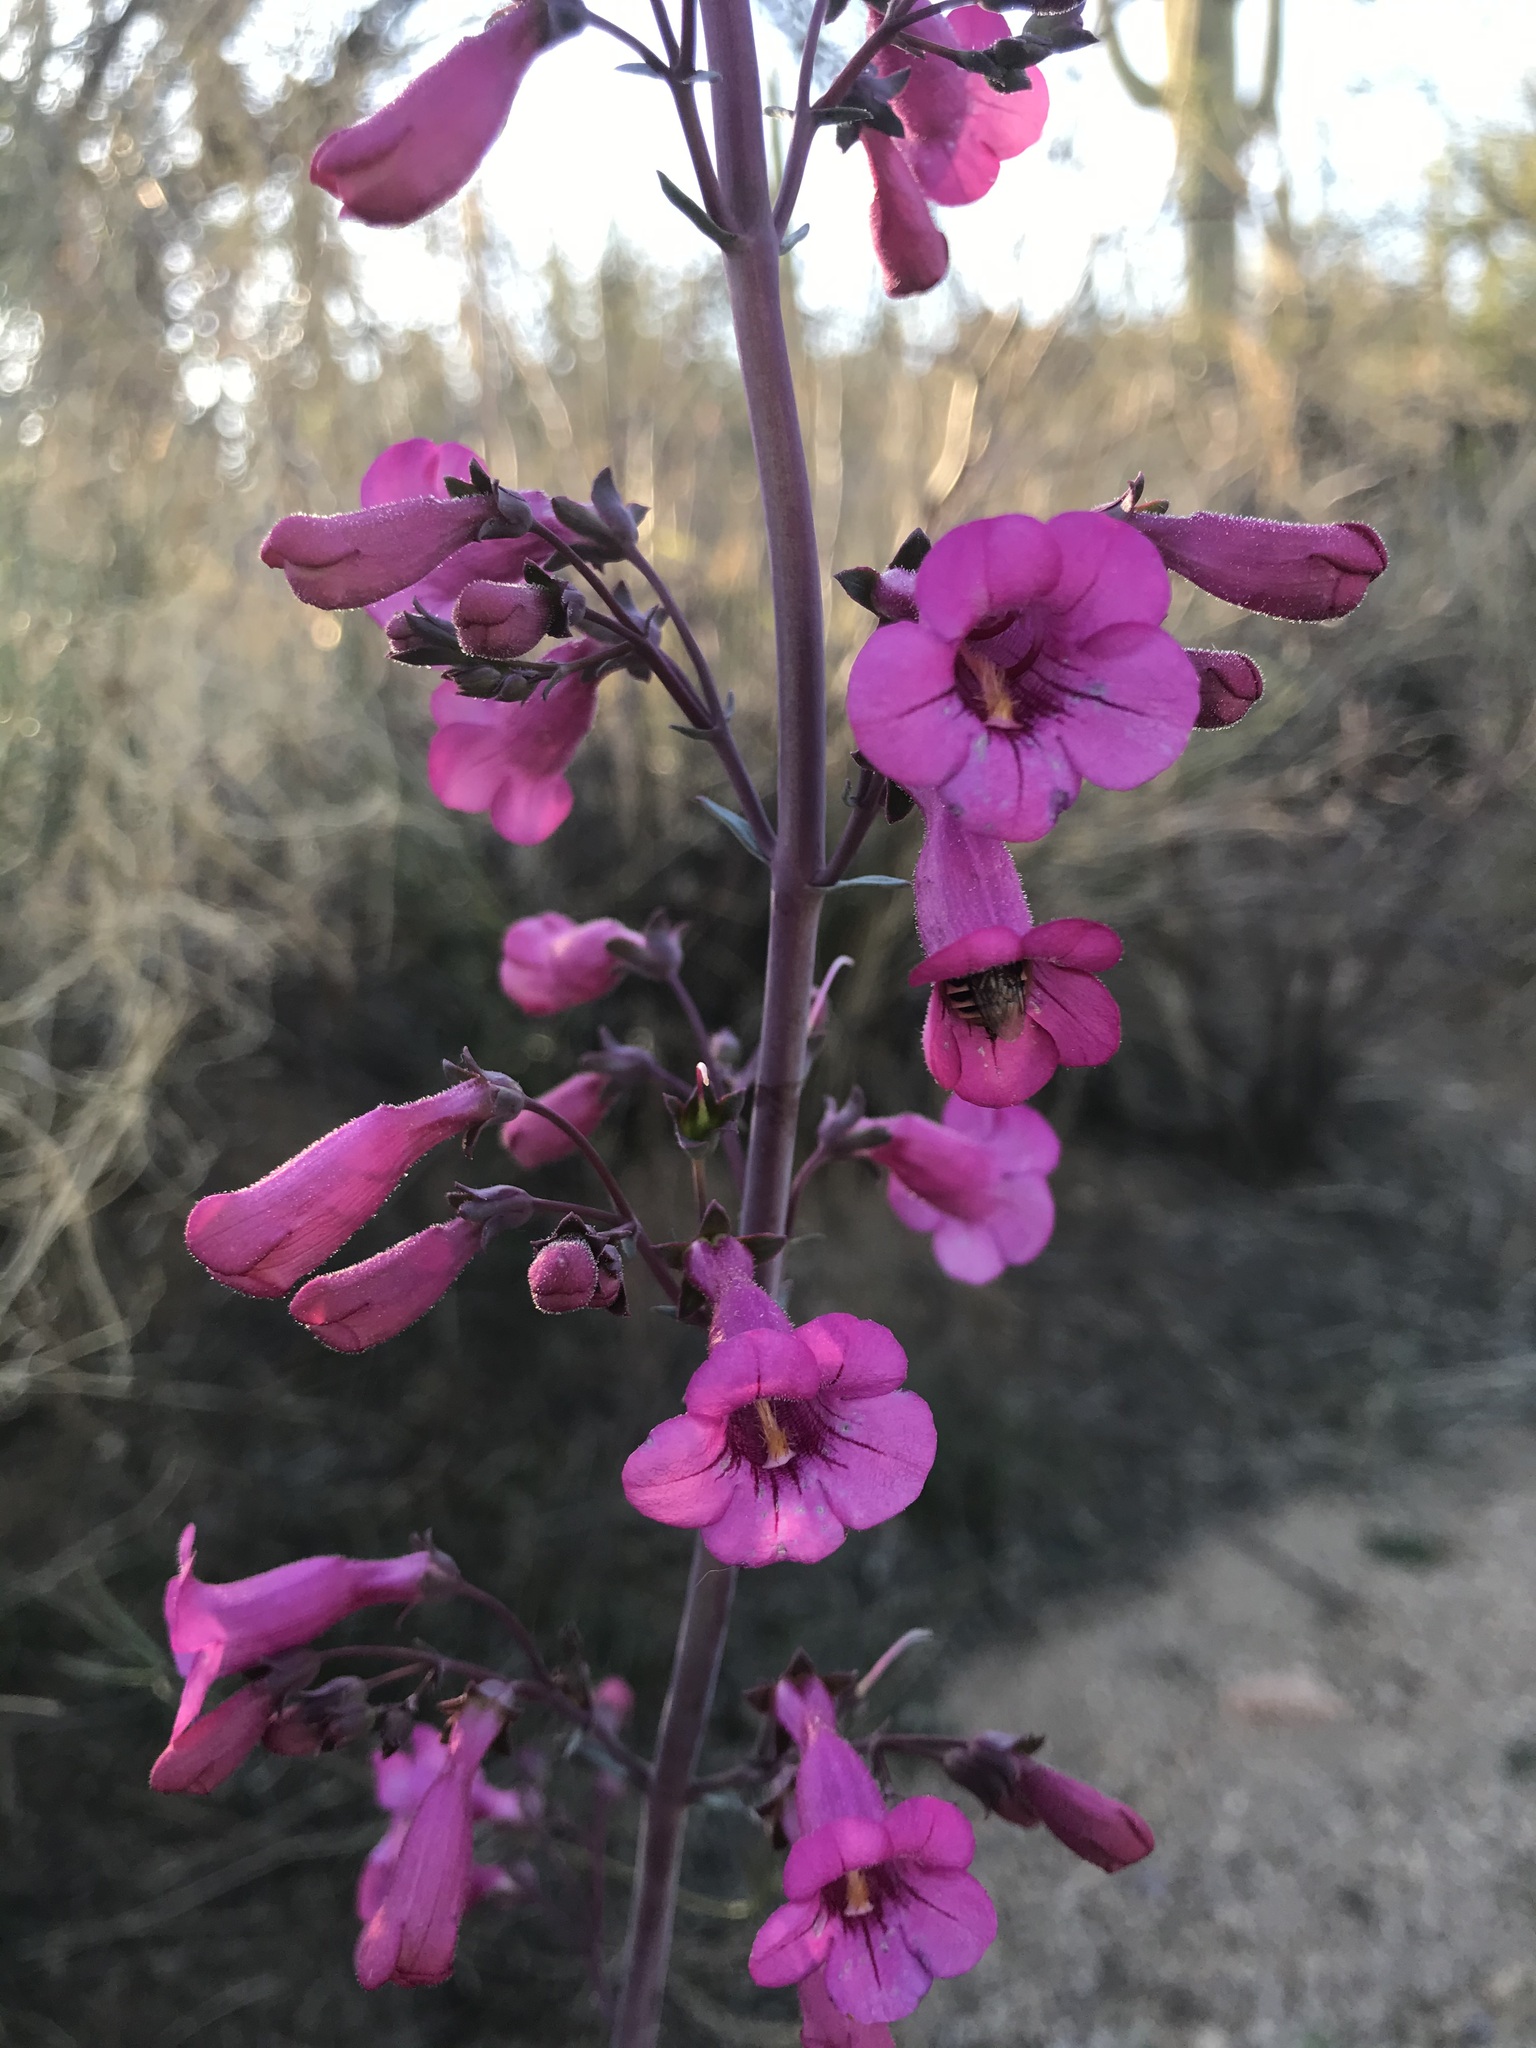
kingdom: Plantae
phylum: Tracheophyta
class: Magnoliopsida
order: Lamiales
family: Plantaginaceae
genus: Penstemon
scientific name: Penstemon parryi
